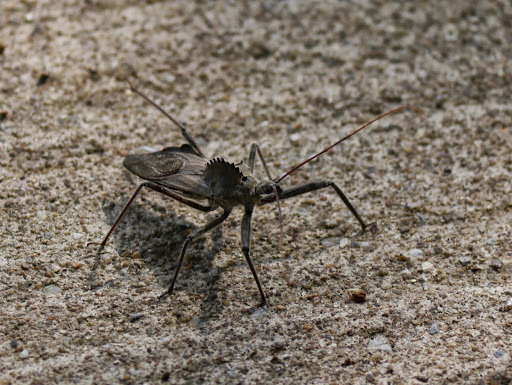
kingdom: Animalia
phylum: Arthropoda
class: Insecta
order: Hemiptera
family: Reduviidae
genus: Arilus
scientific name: Arilus cristatus
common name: North american wheel bug
